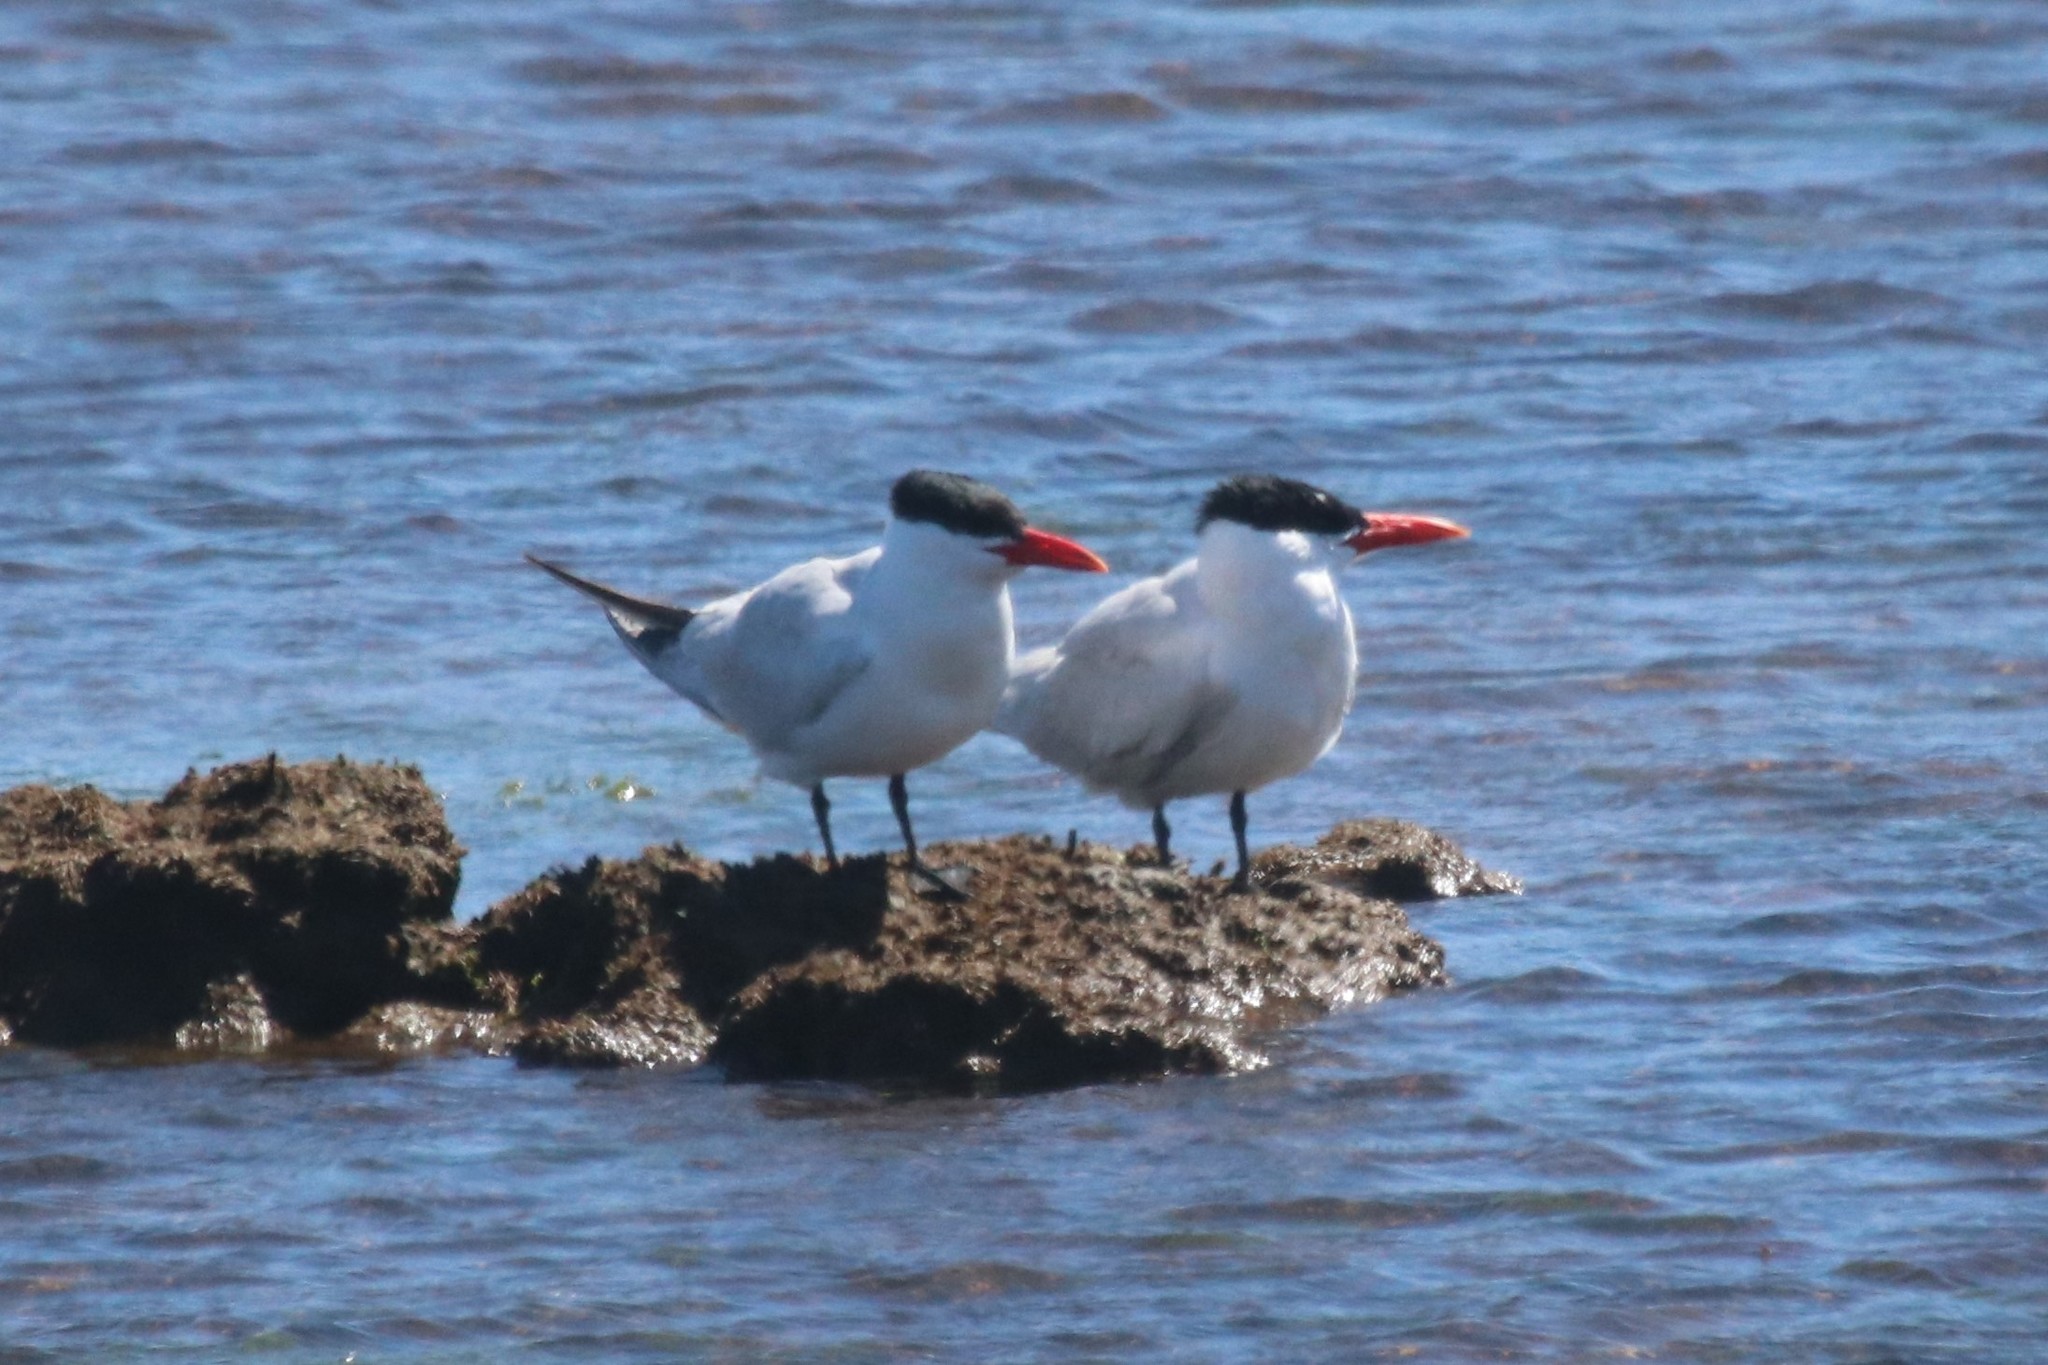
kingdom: Animalia
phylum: Chordata
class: Aves
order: Charadriiformes
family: Laridae
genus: Hydroprogne
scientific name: Hydroprogne caspia
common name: Caspian tern
